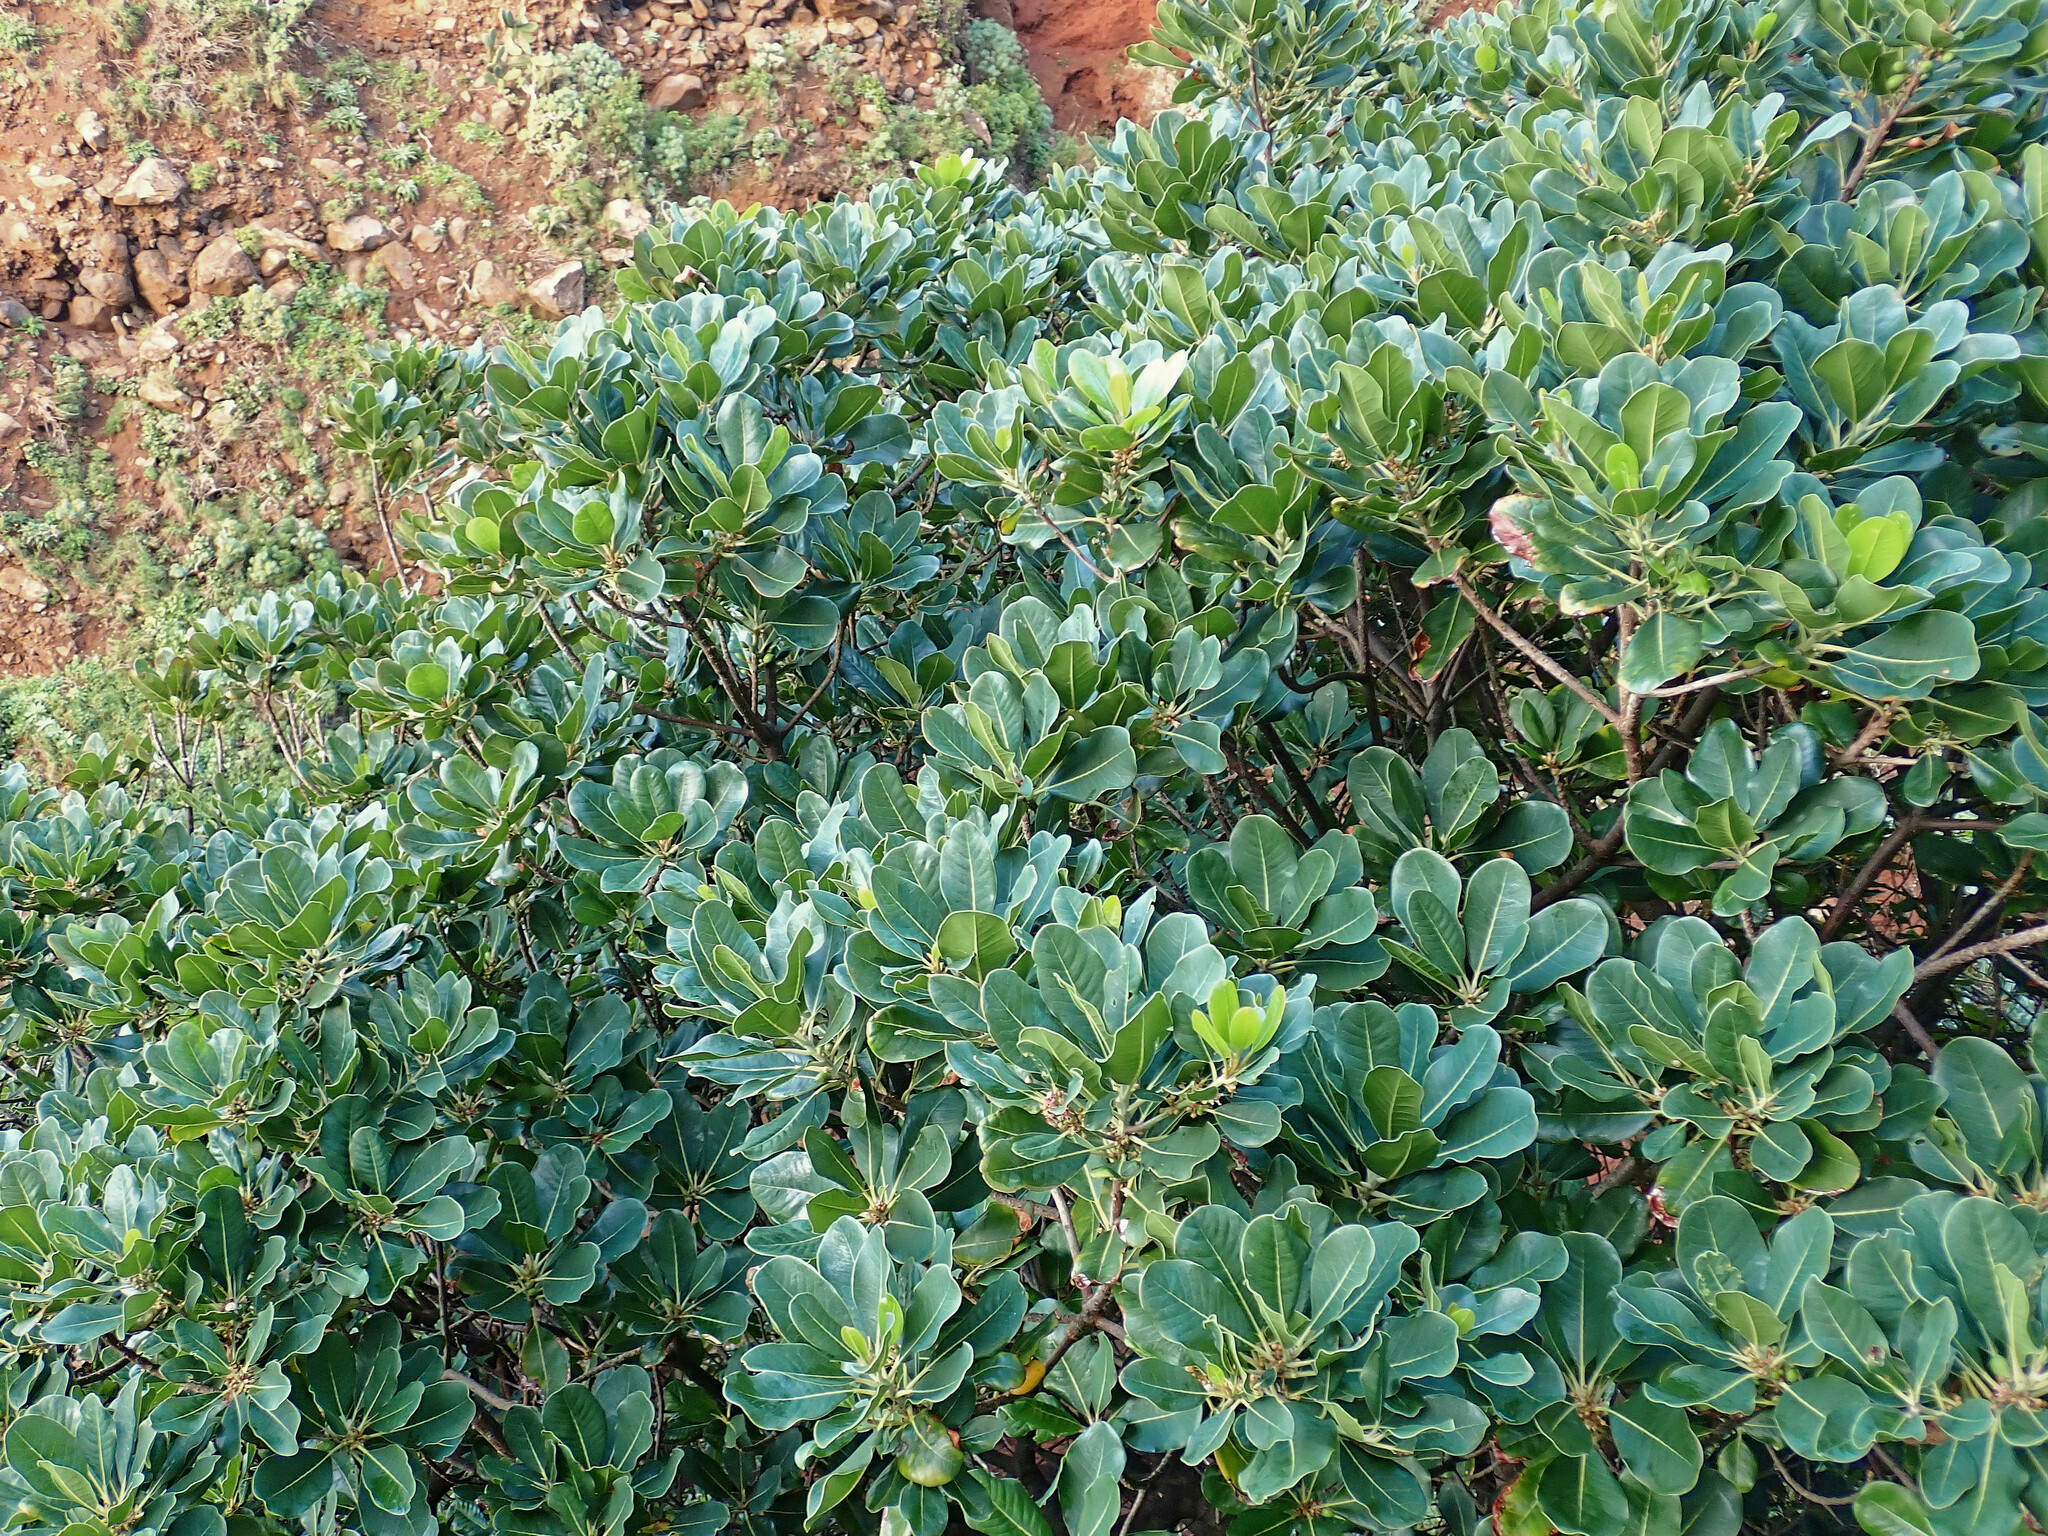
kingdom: Plantae
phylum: Tracheophyta
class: Magnoliopsida
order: Ericales
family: Sapotaceae
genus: Sideroxylon
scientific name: Sideroxylon mirmulans
